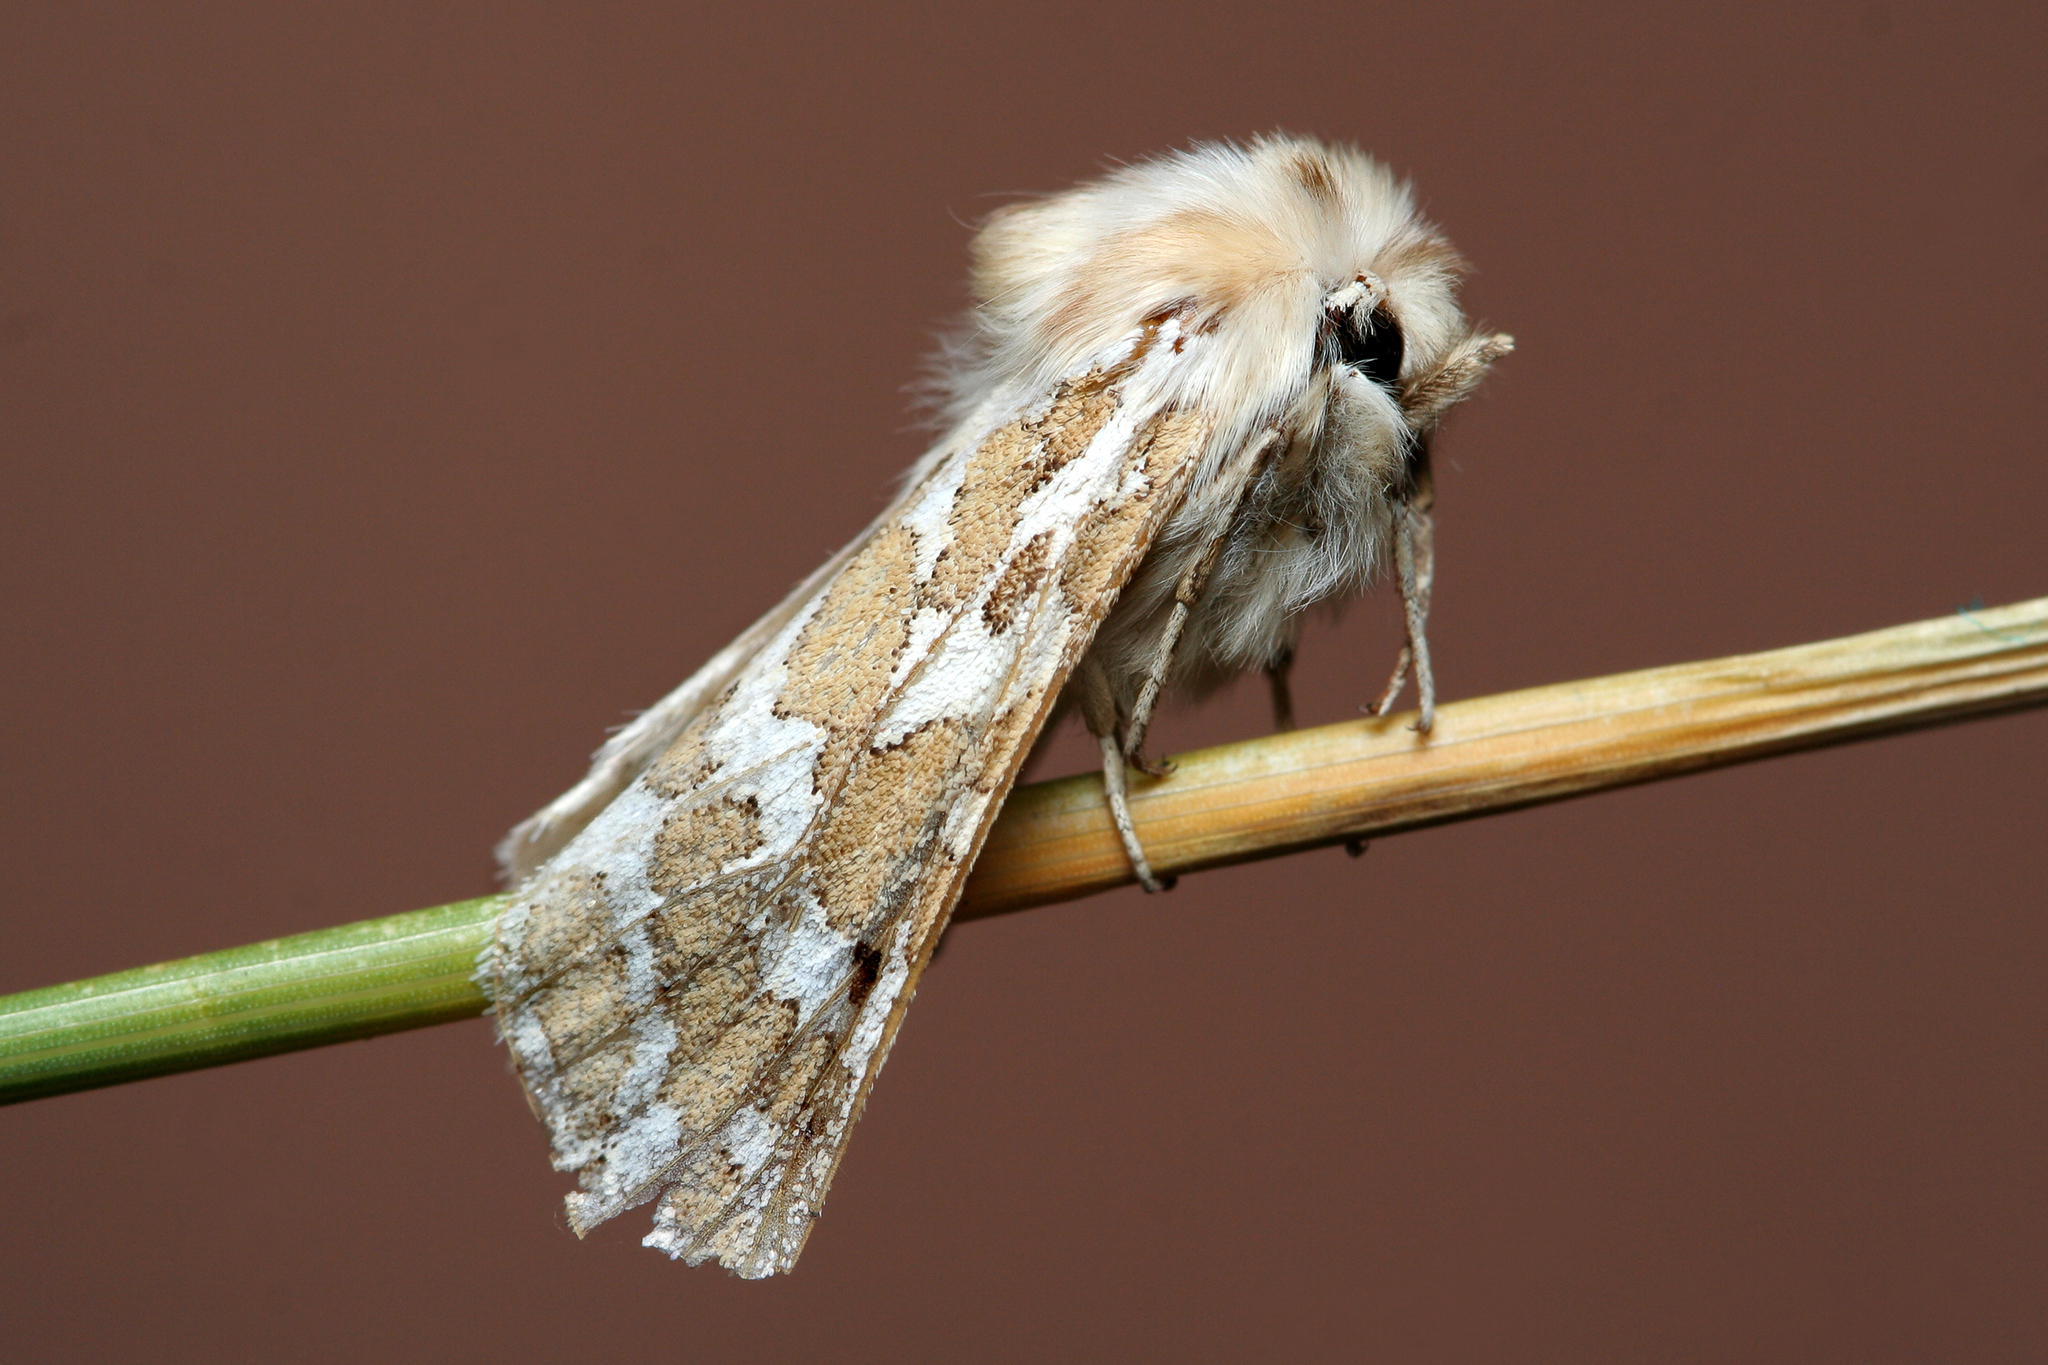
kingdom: Animalia
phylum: Arthropoda
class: Insecta
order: Lepidoptera
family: Erebidae
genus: Lacydes
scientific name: Lacydes spectabilis
